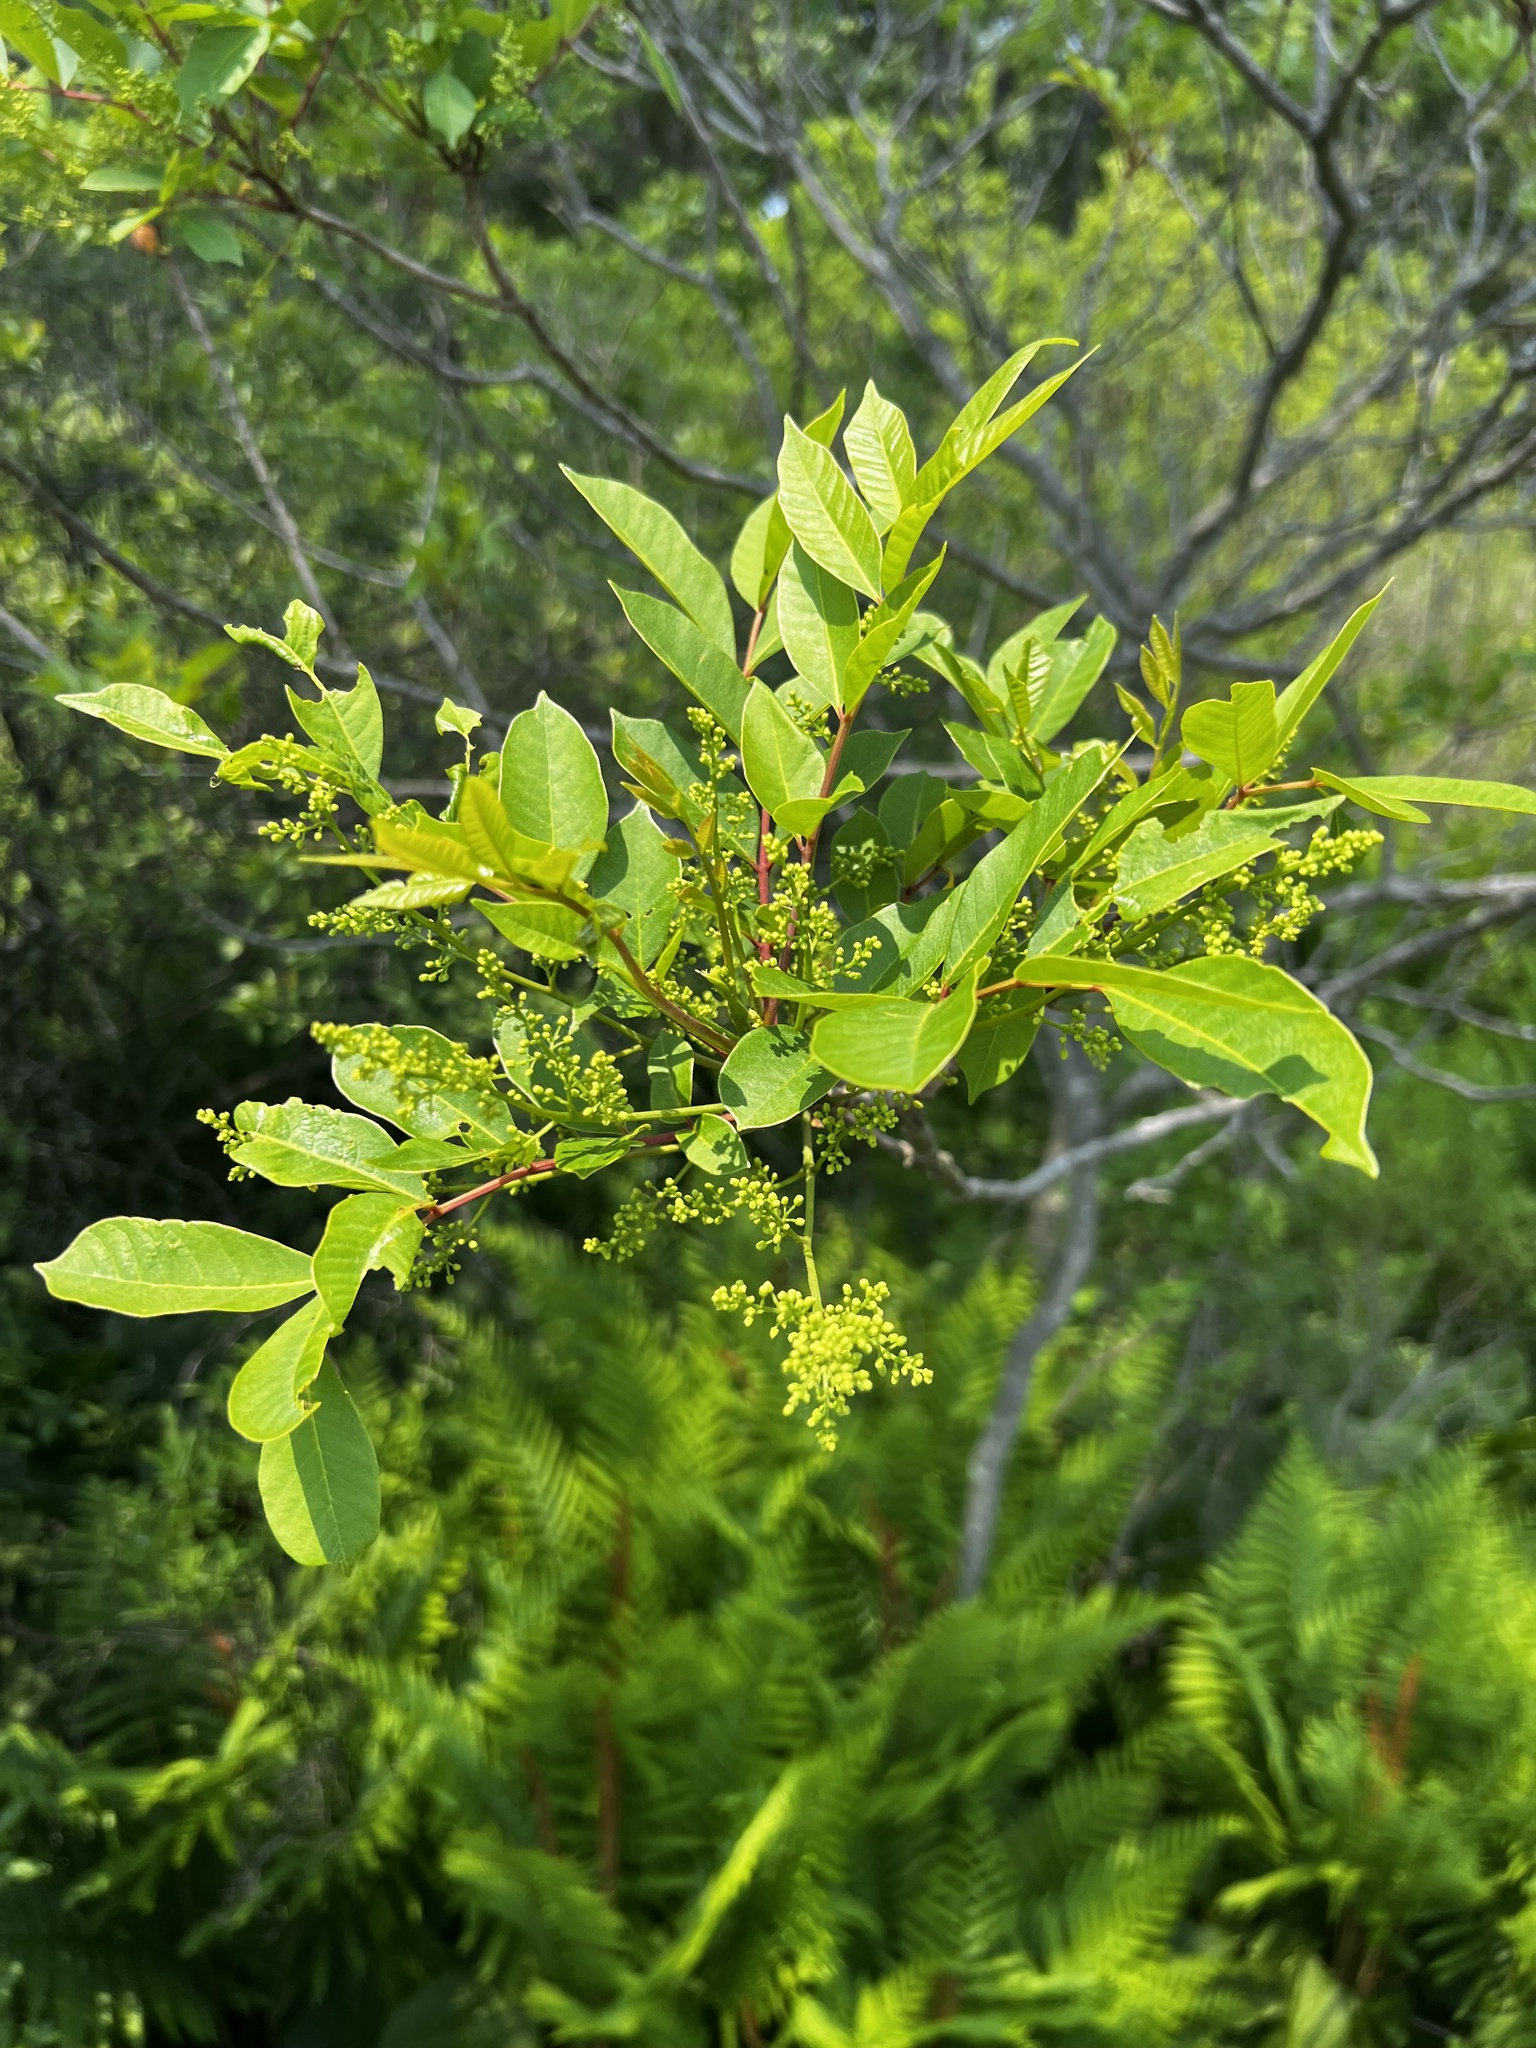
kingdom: Plantae
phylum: Tracheophyta
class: Magnoliopsida
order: Sapindales
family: Anacardiaceae
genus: Toxicodendron
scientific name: Toxicodendron vernix
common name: Poison sumac
